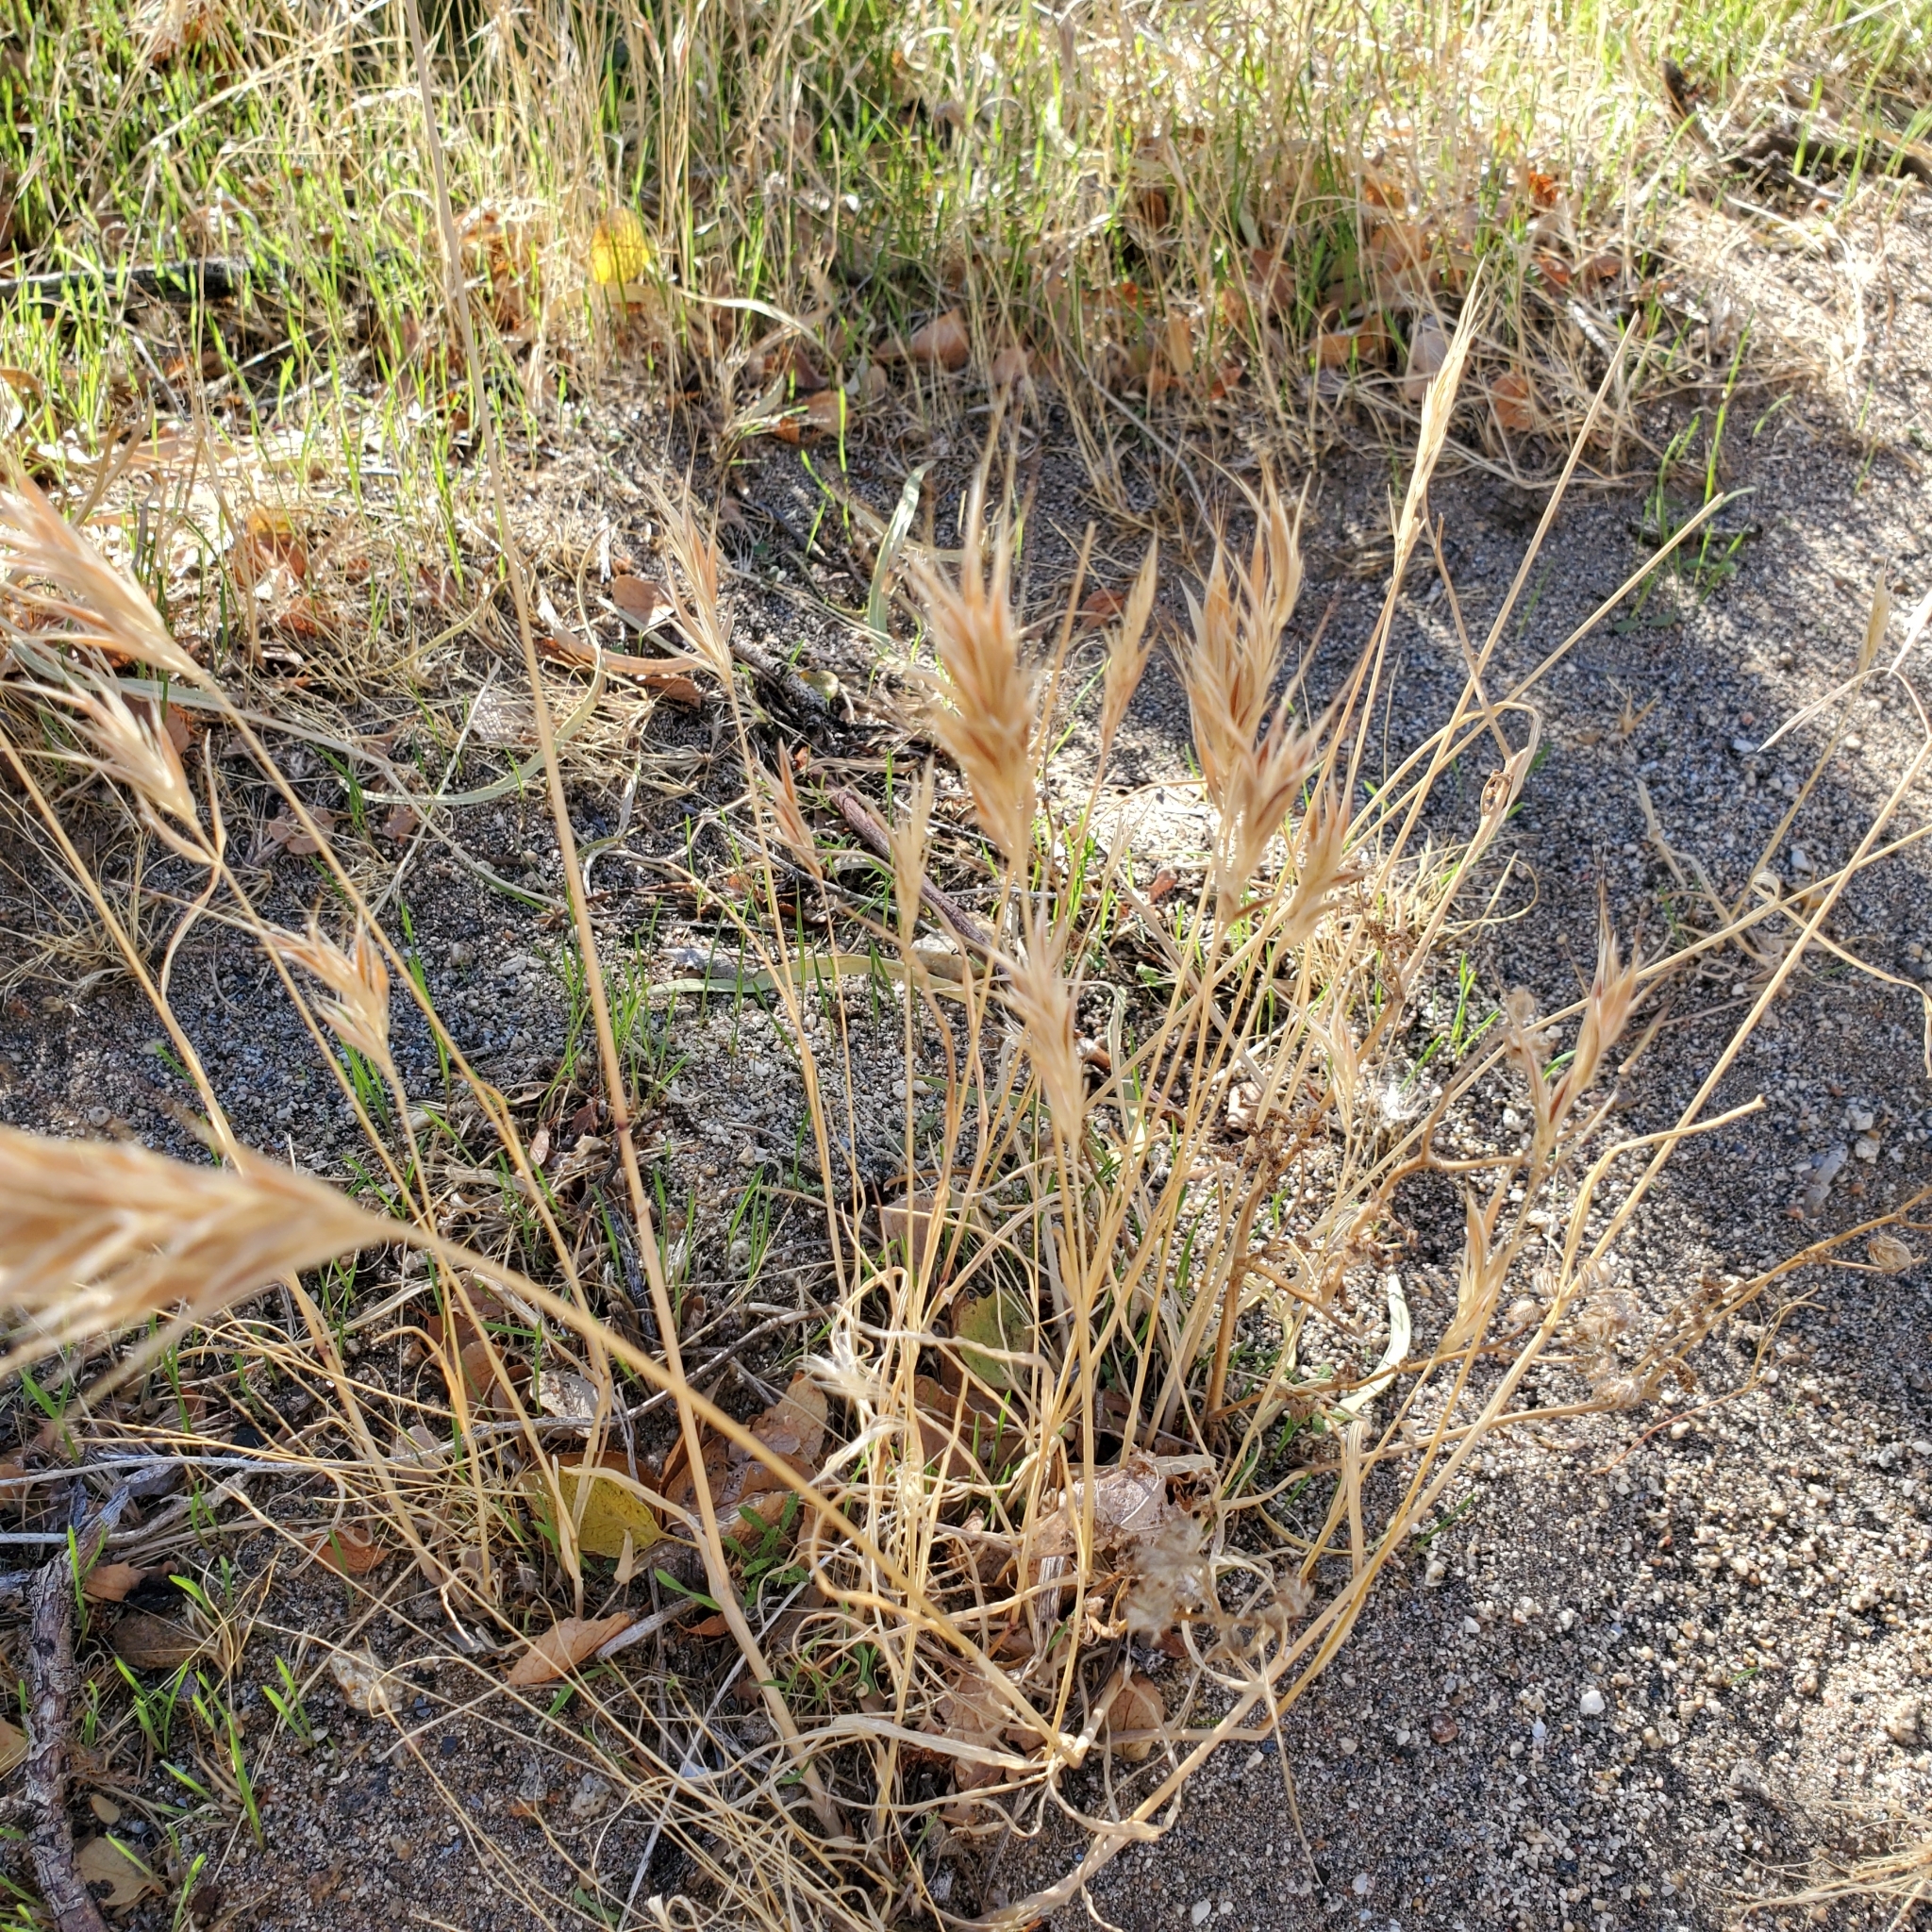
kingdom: Plantae
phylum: Tracheophyta
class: Liliopsida
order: Poales
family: Poaceae
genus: Bromus
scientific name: Bromus rubens
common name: Red brome
